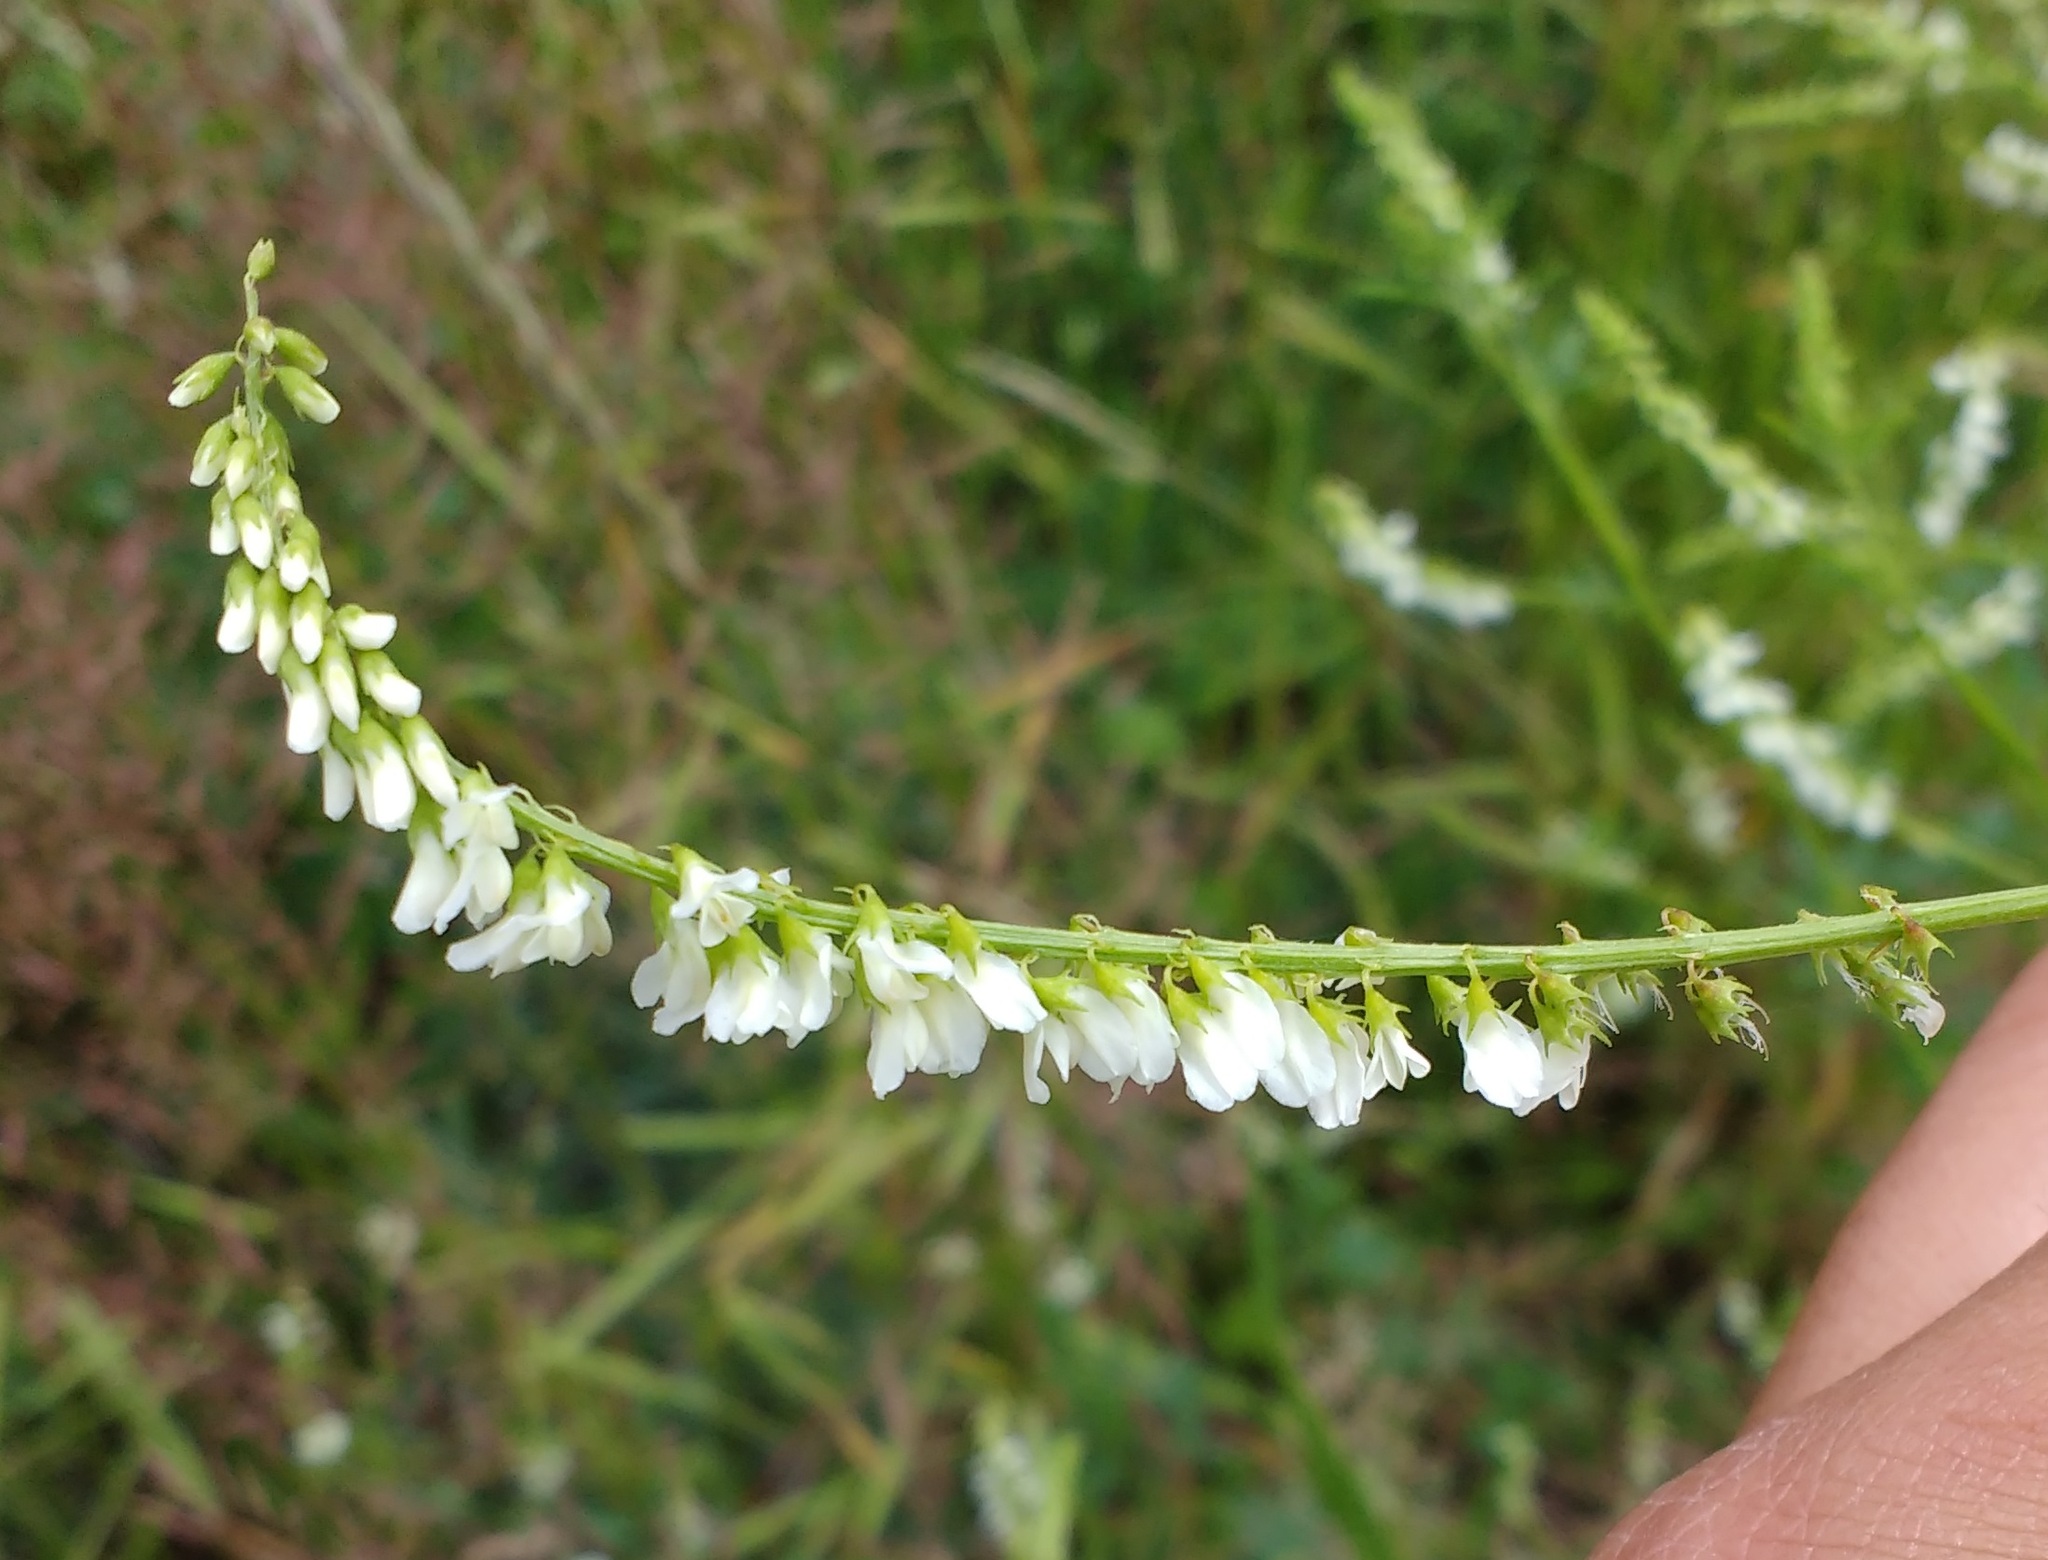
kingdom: Plantae
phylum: Tracheophyta
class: Magnoliopsida
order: Fabales
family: Fabaceae
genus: Melilotus
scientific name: Melilotus albus
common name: White melilot
